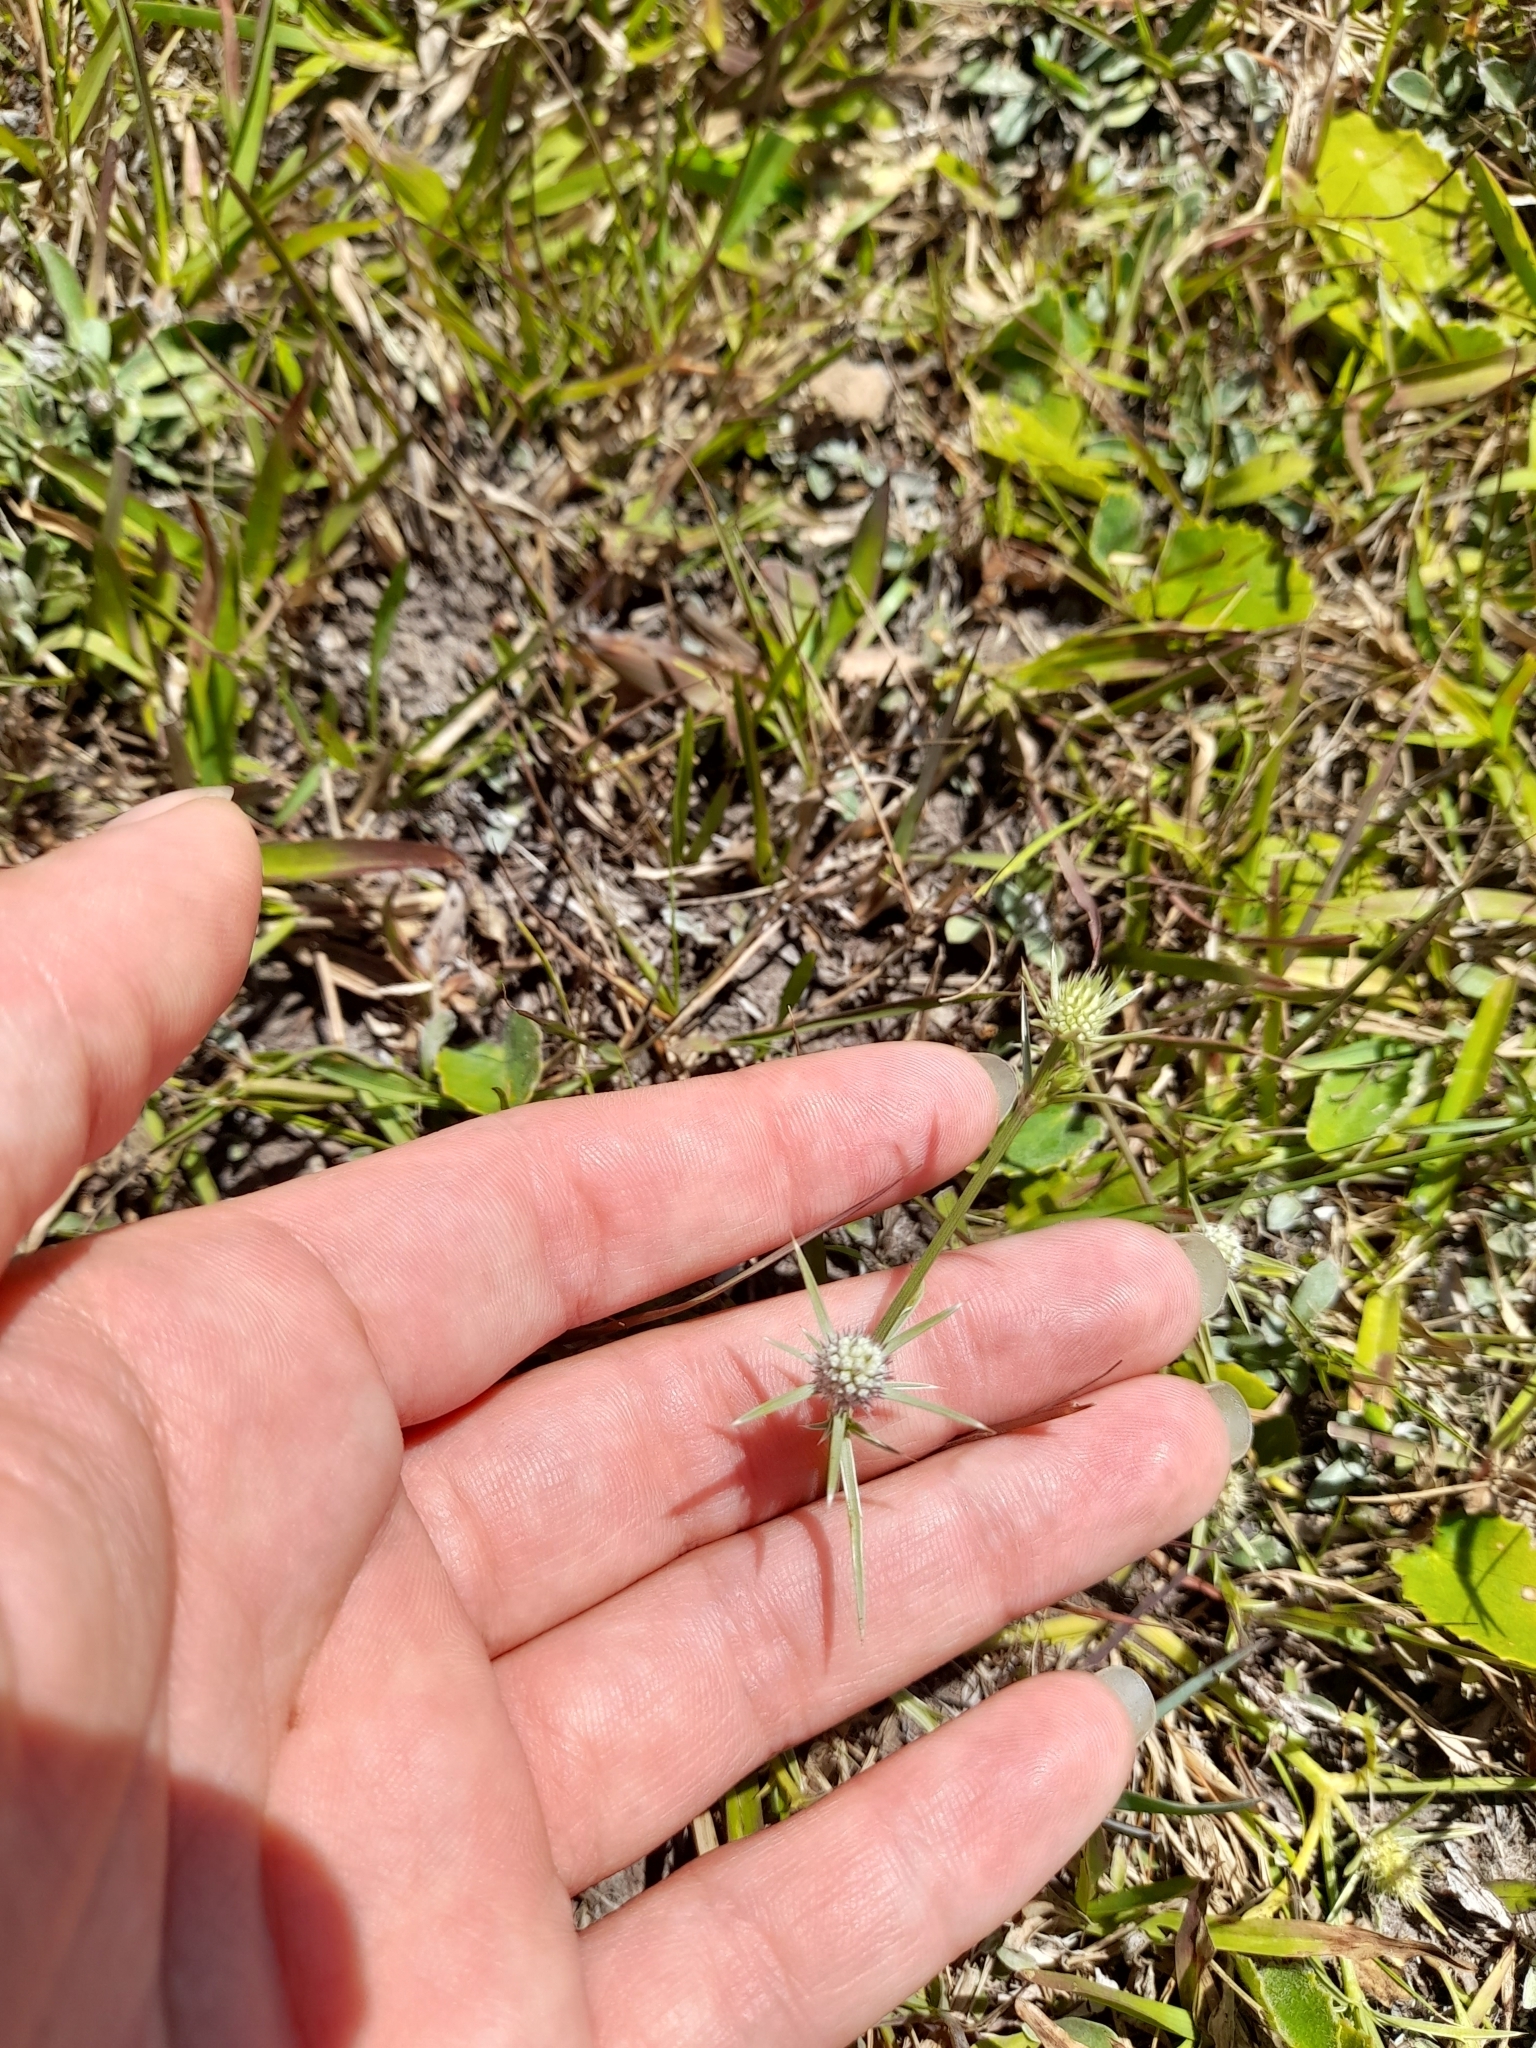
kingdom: Plantae
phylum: Tracheophyta
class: Magnoliopsida
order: Apiales
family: Apiaceae
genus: Eryngium
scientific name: Eryngium echinatum
